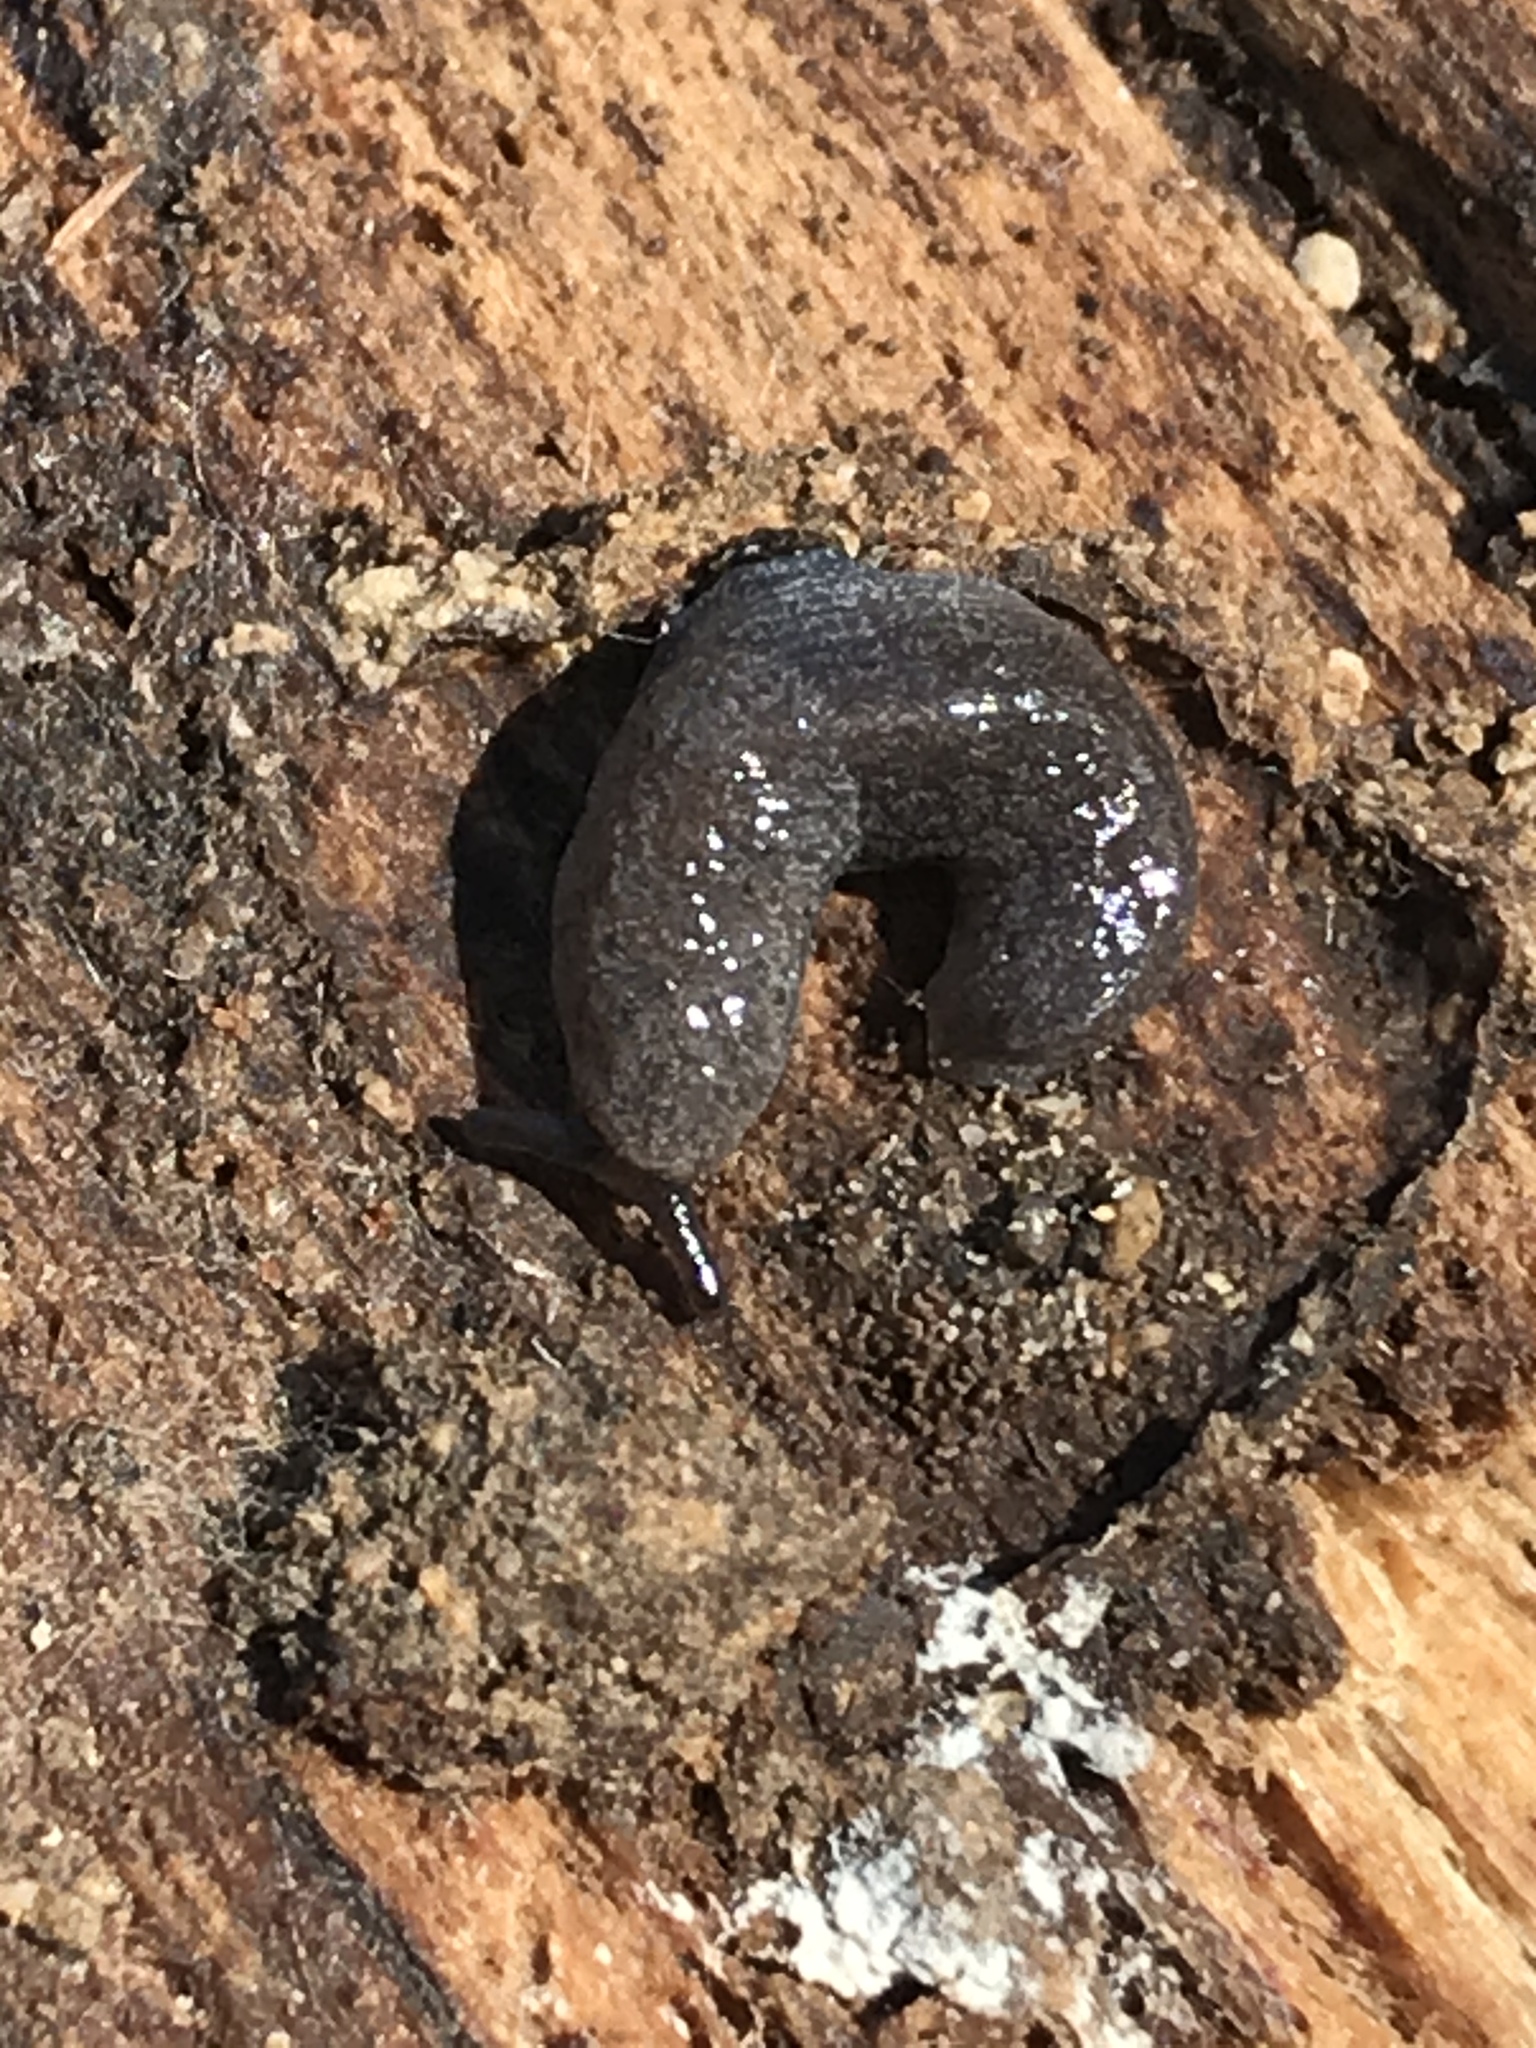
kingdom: Animalia
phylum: Mollusca
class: Gastropoda
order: Stylommatophora
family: Ariolimacidae
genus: Hesperarion
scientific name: Hesperarion niger
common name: Black western slug
